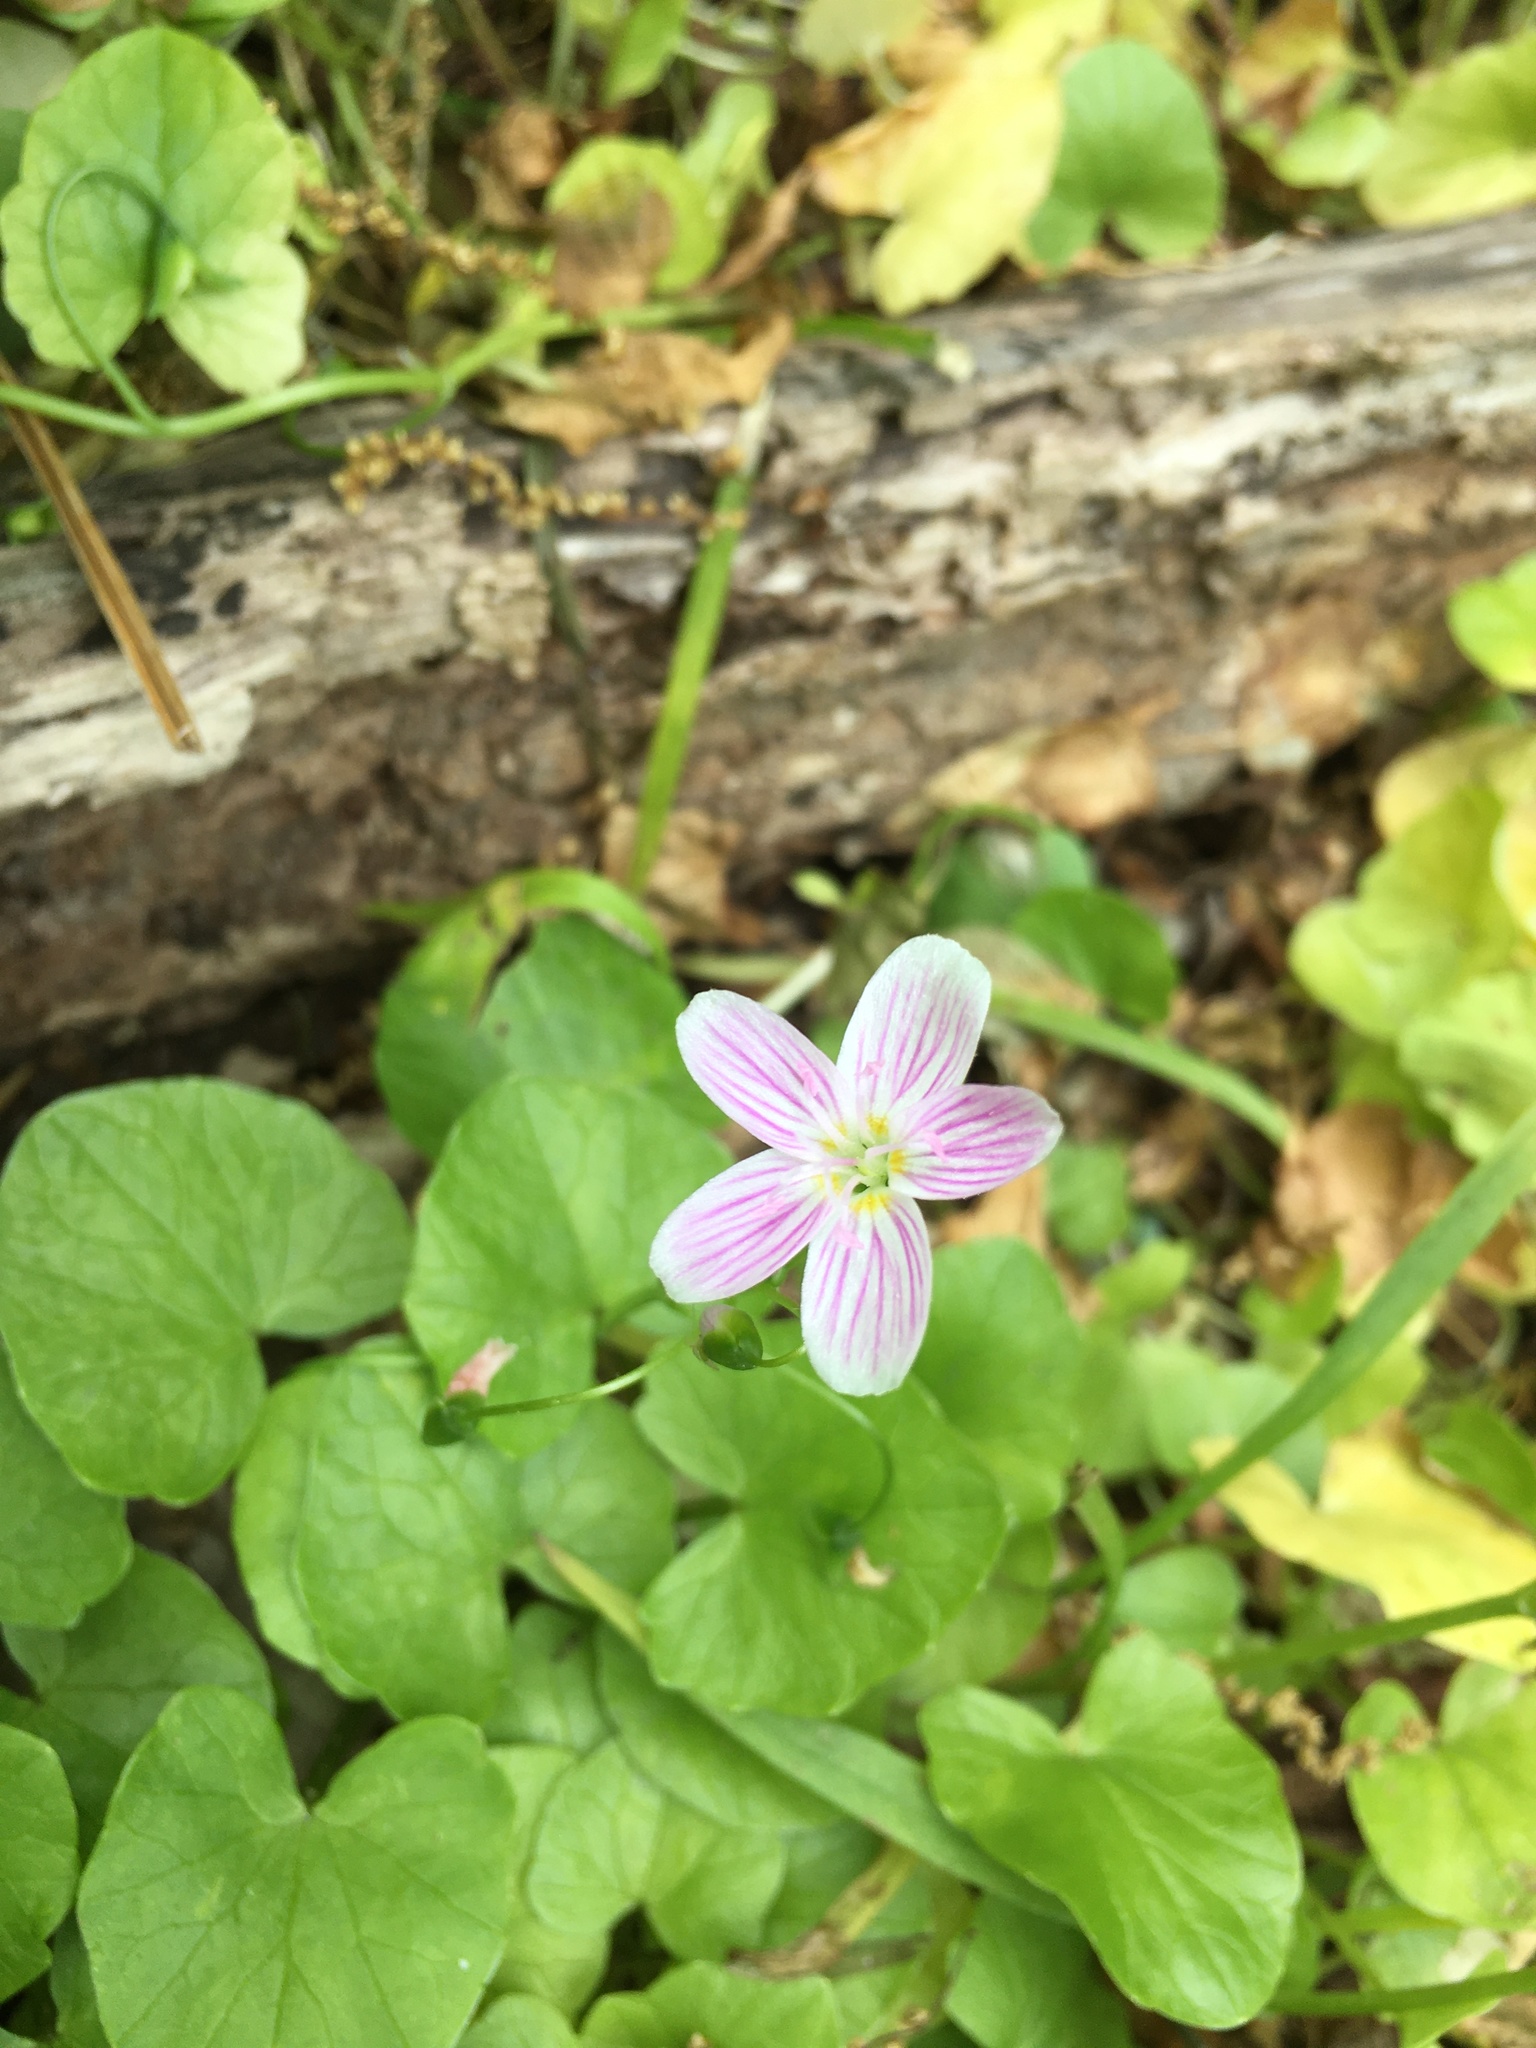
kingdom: Plantae
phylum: Tracheophyta
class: Magnoliopsida
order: Caryophyllales
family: Montiaceae
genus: Claytonia
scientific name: Claytonia virginica
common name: Virginia springbeauty
